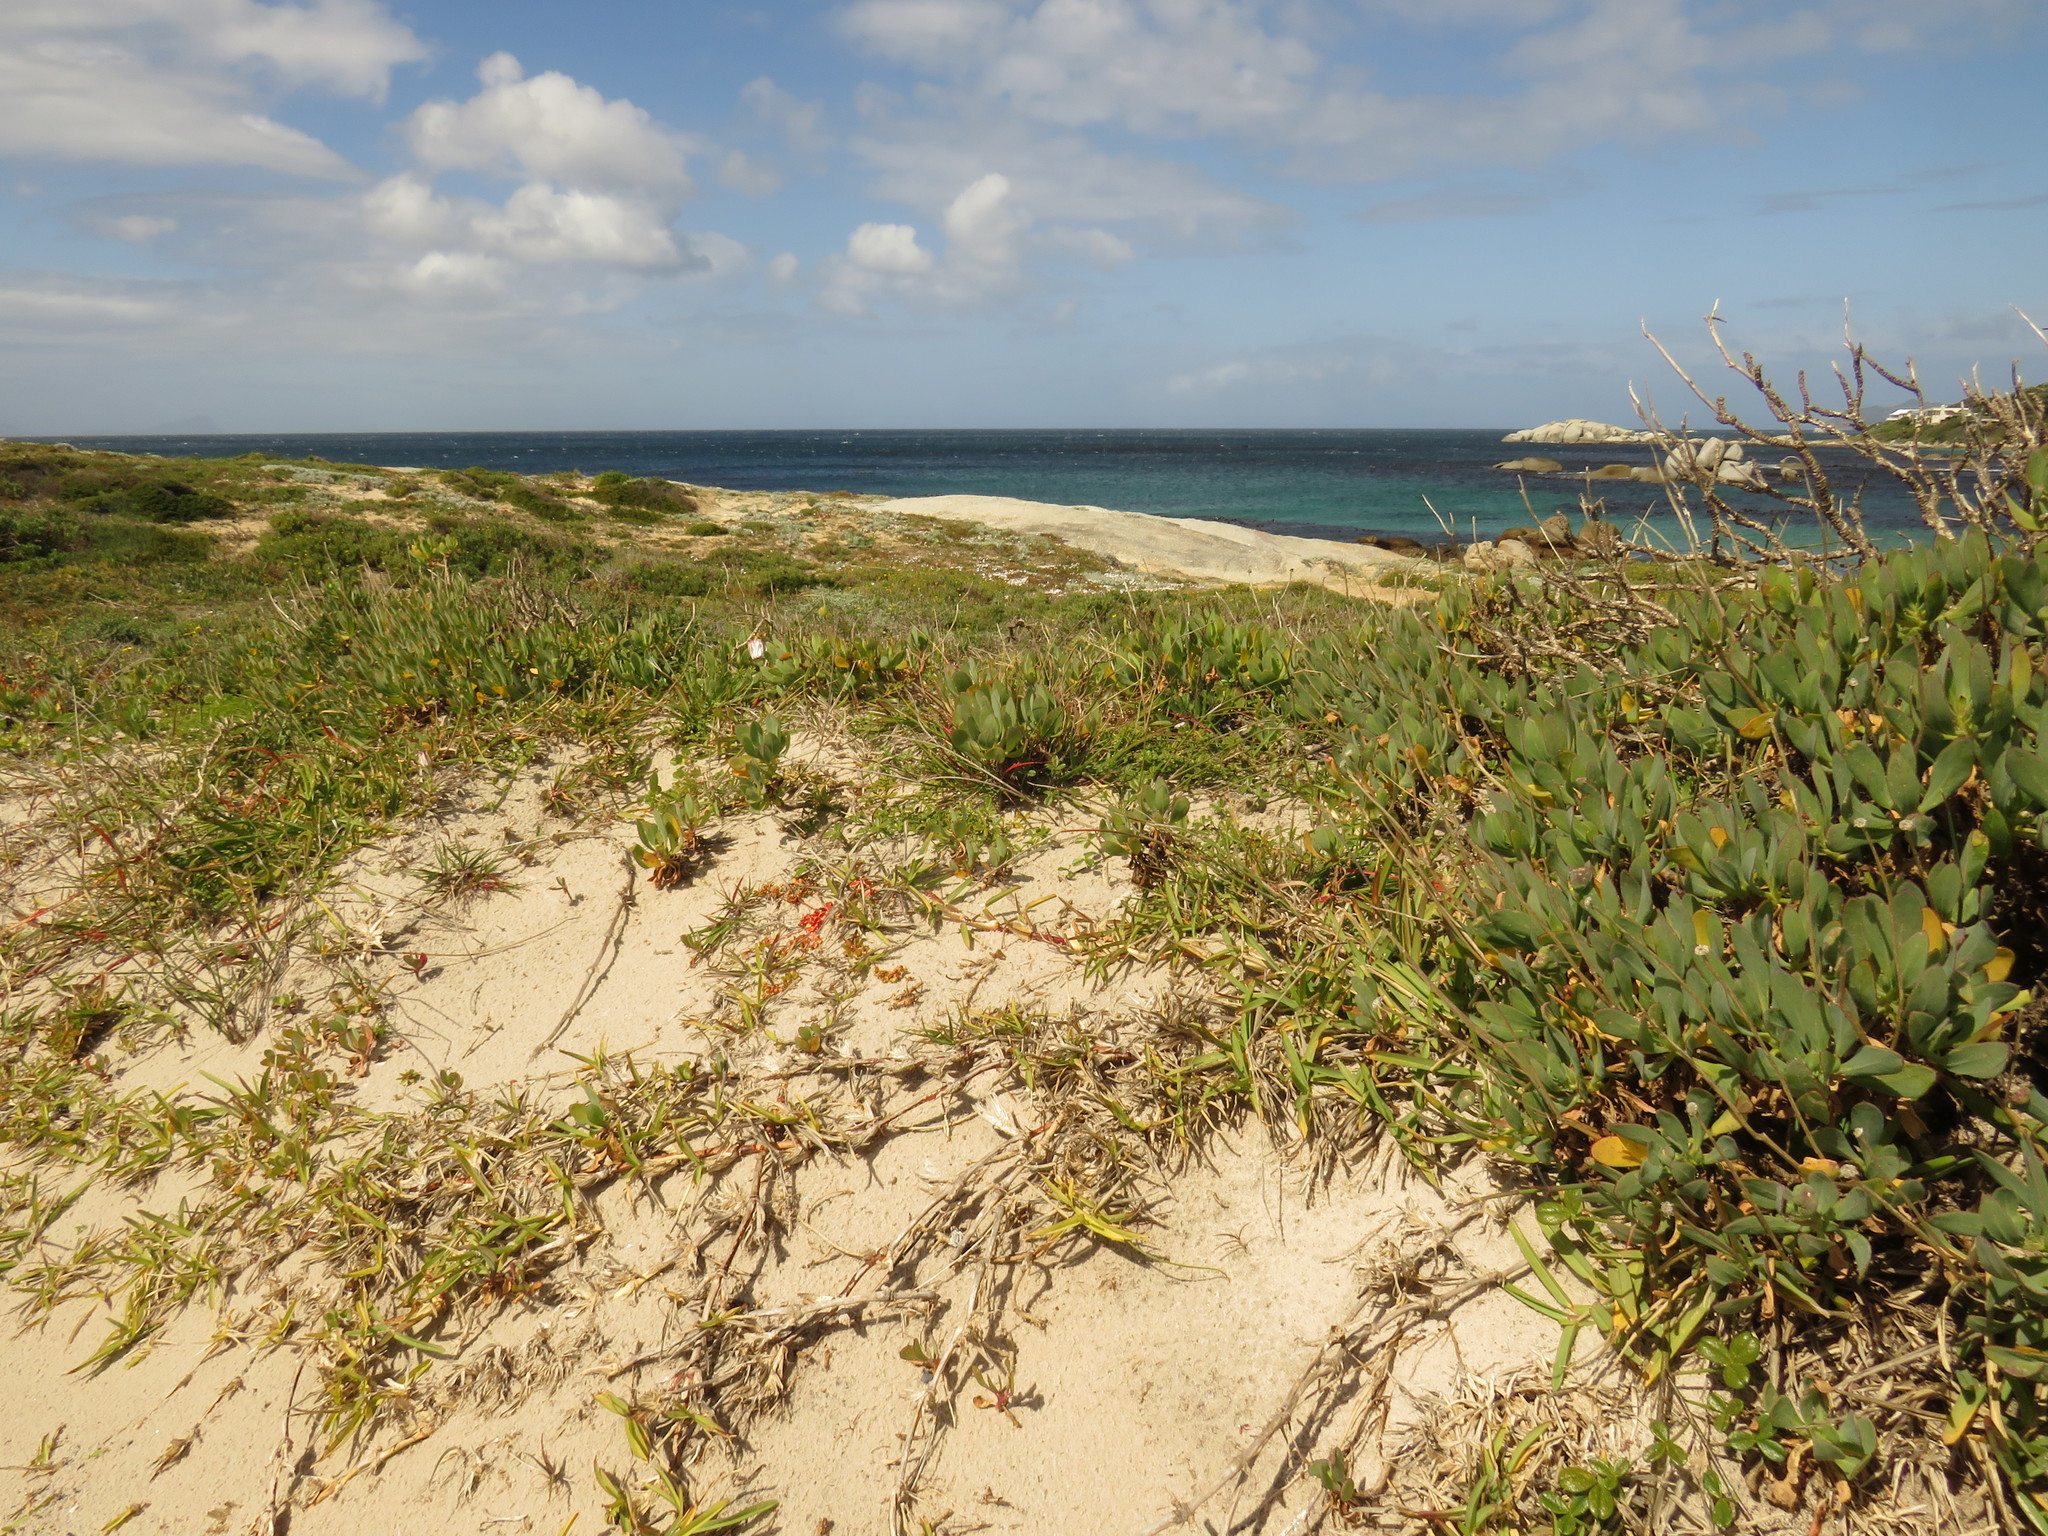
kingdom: Plantae
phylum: Tracheophyta
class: Magnoliopsida
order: Fabales
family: Fabaceae
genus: Psoralea
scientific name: Psoralea repens
